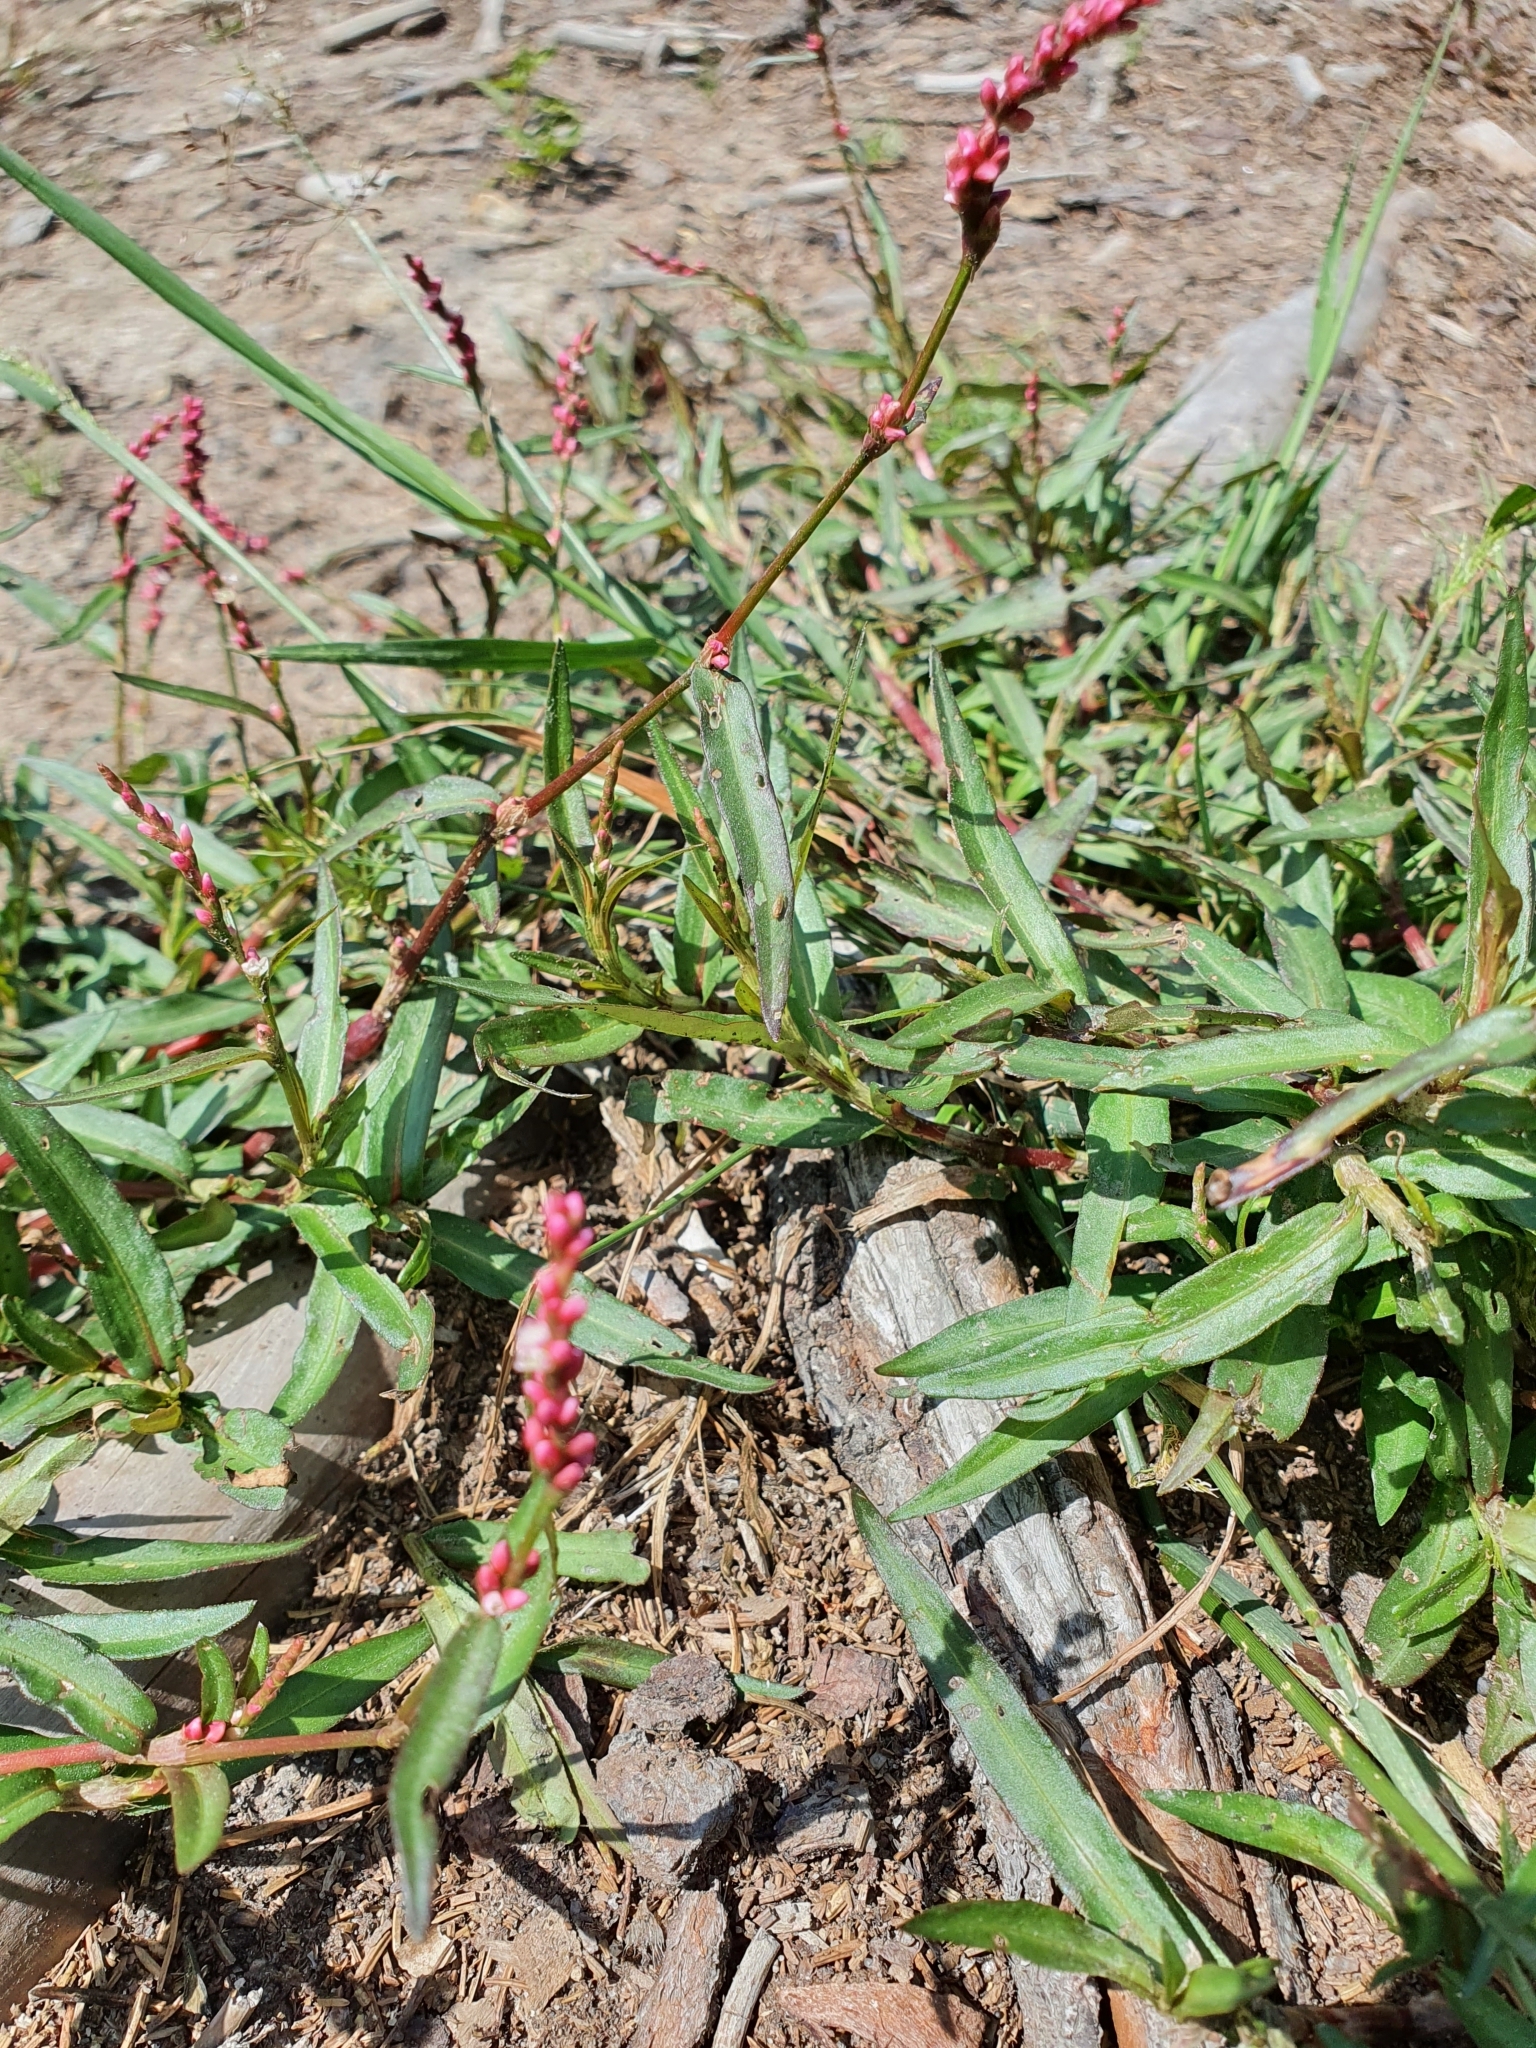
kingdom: Plantae
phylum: Tracheophyta
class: Magnoliopsida
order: Caryophyllales
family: Polygonaceae
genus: Persicaria
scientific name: Persicaria minor
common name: Small water-pepper
